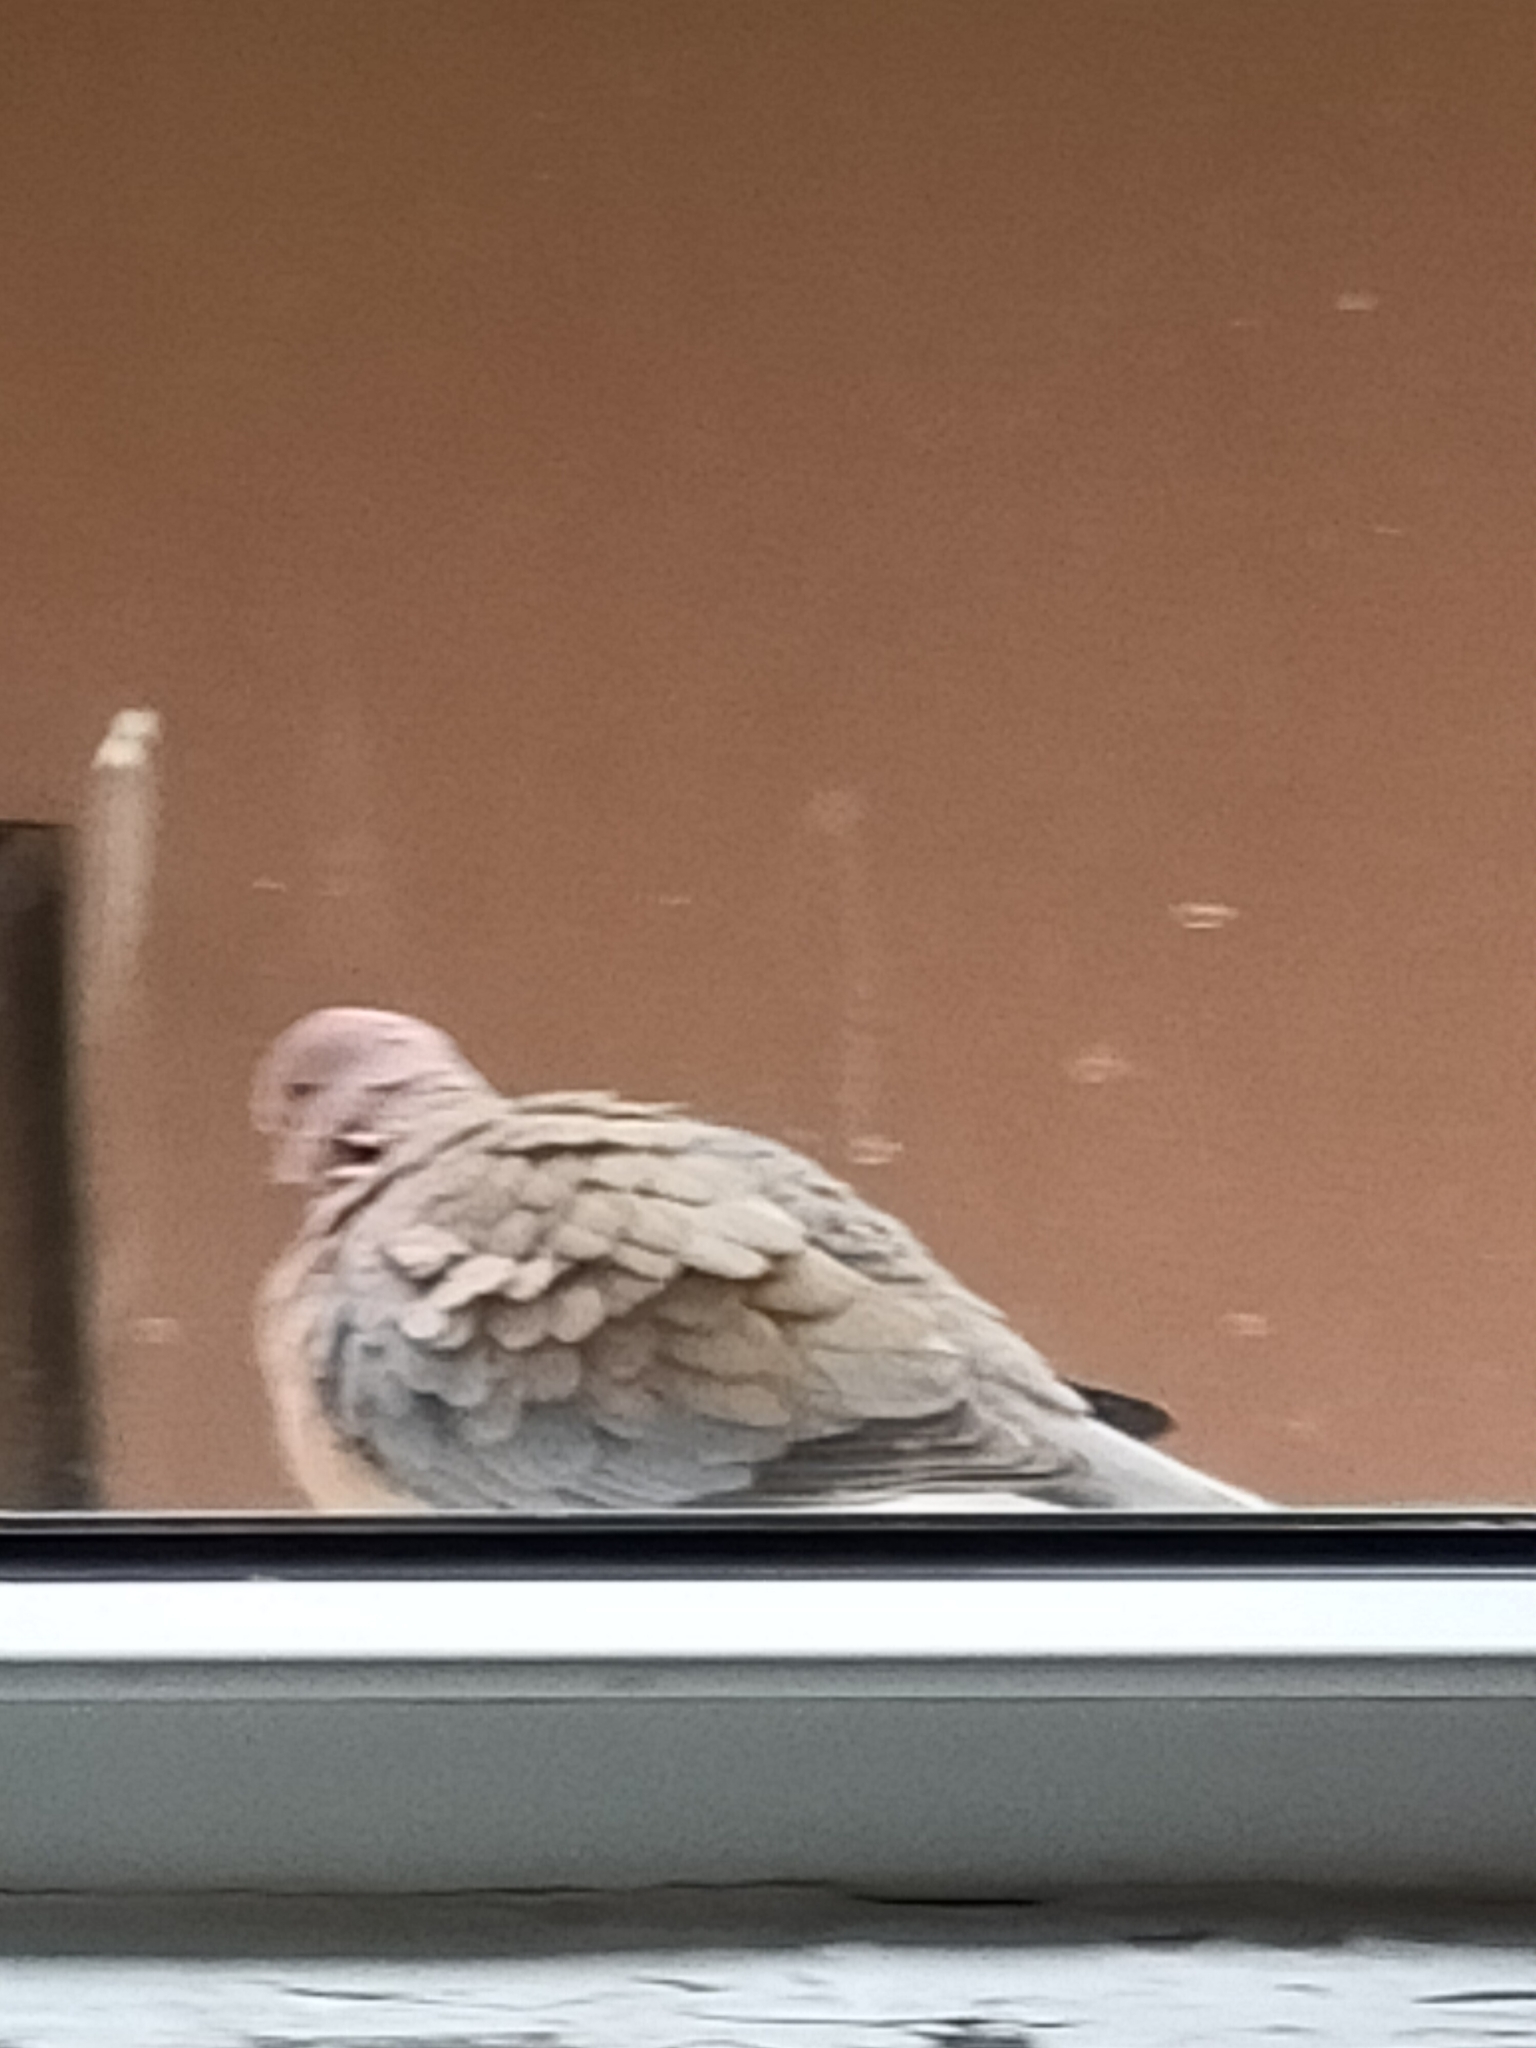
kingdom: Animalia
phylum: Chordata
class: Aves
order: Columbiformes
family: Columbidae
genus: Spilopelia
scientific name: Spilopelia senegalensis
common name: Laughing dove
